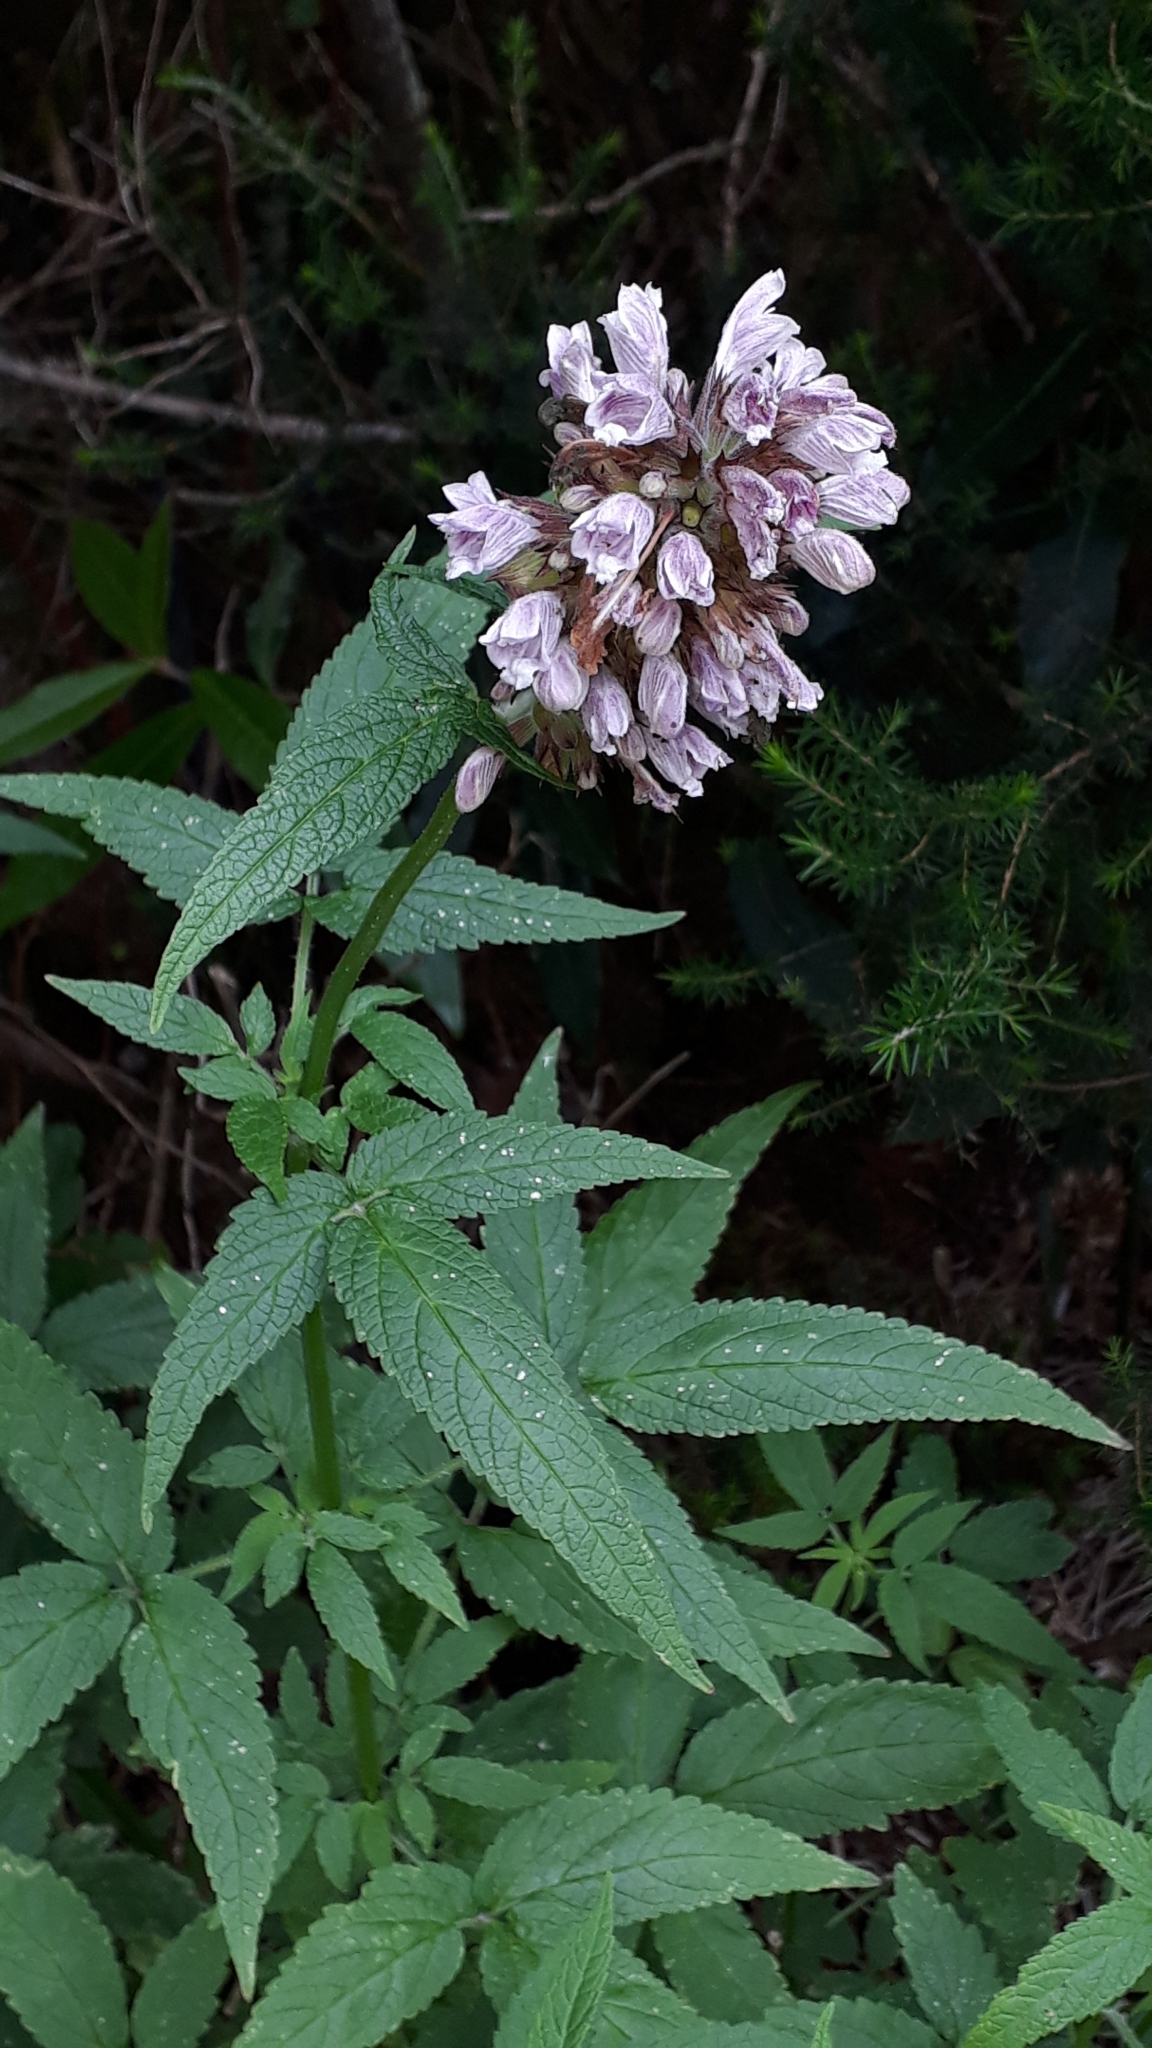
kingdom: Plantae
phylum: Tracheophyta
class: Magnoliopsida
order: Lamiales
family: Lamiaceae
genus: Cedronella
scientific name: Cedronella canariensis
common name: Canary islands balm
